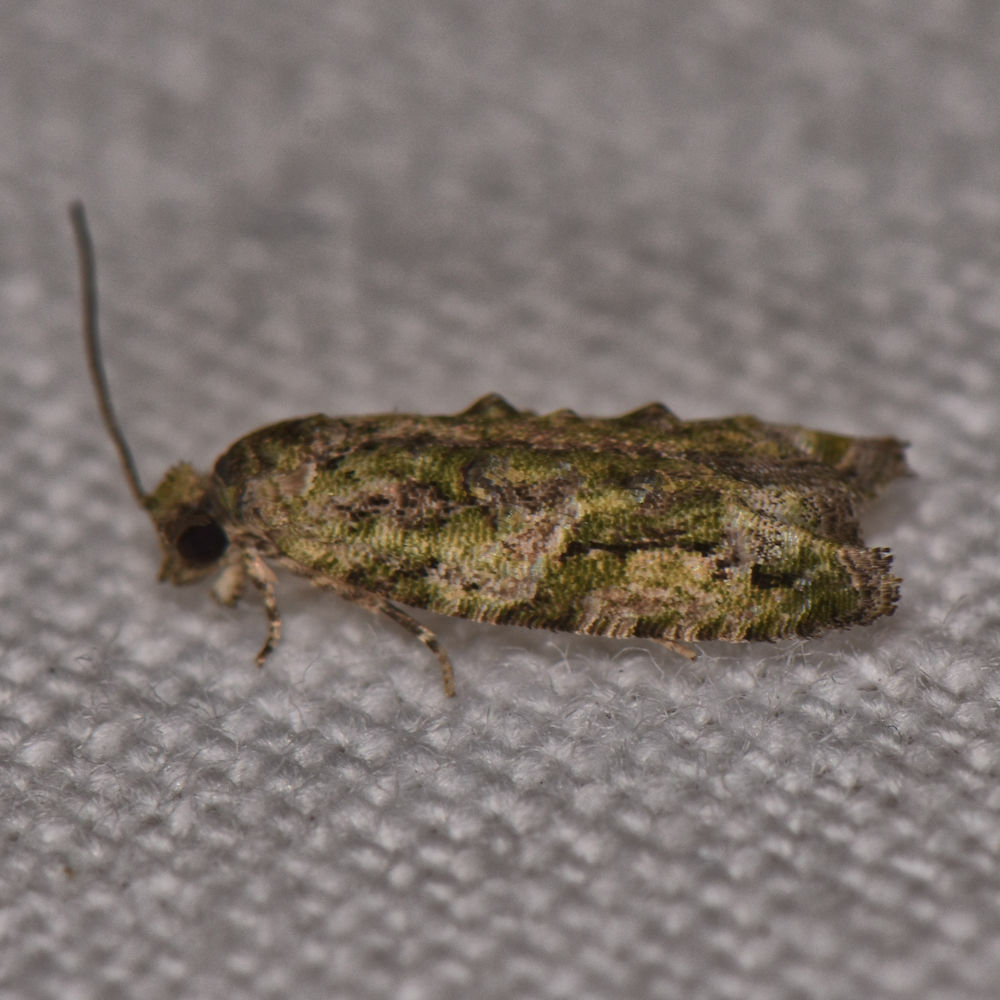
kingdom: Animalia
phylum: Arthropoda
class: Insecta
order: Lepidoptera
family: Tortricidae
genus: Proteoteras
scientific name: Proteoteras aesculana
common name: Maple twig borer moth
